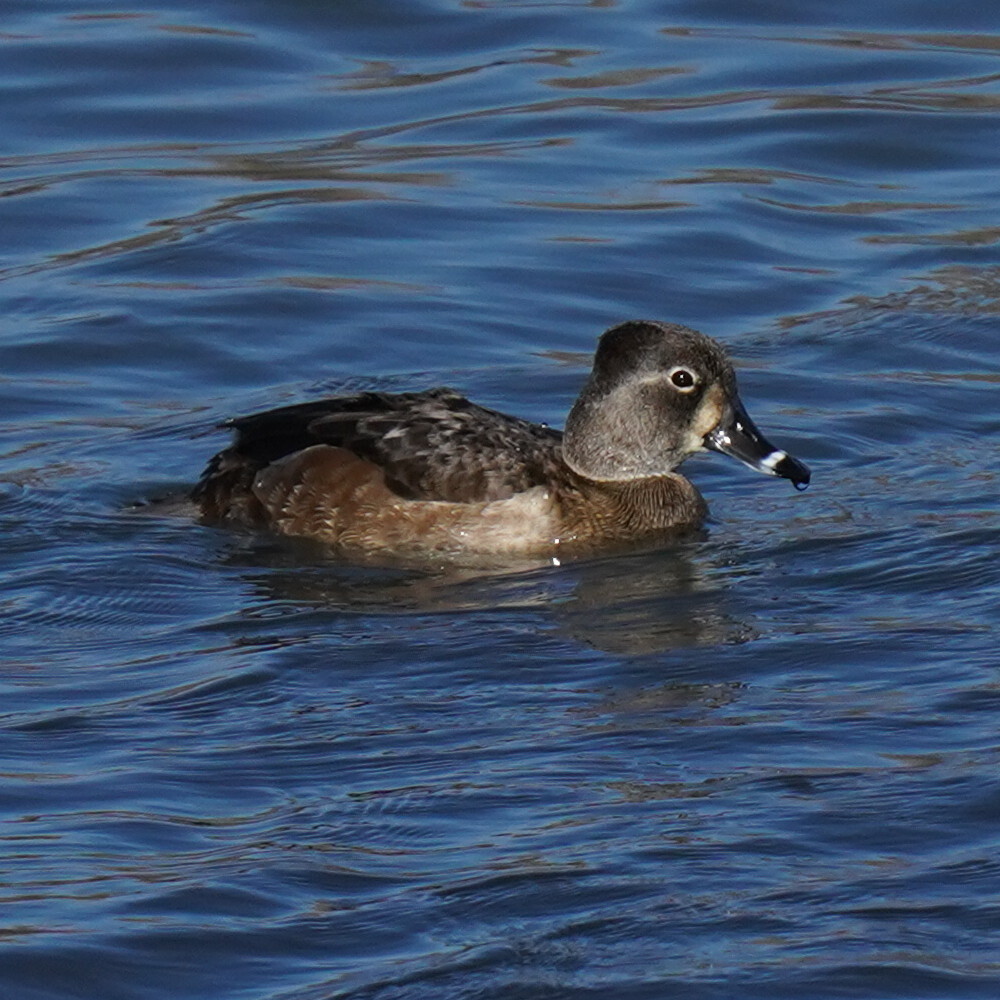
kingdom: Animalia
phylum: Chordata
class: Aves
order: Anseriformes
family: Anatidae
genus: Aythya
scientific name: Aythya collaris
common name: Ring-necked duck
